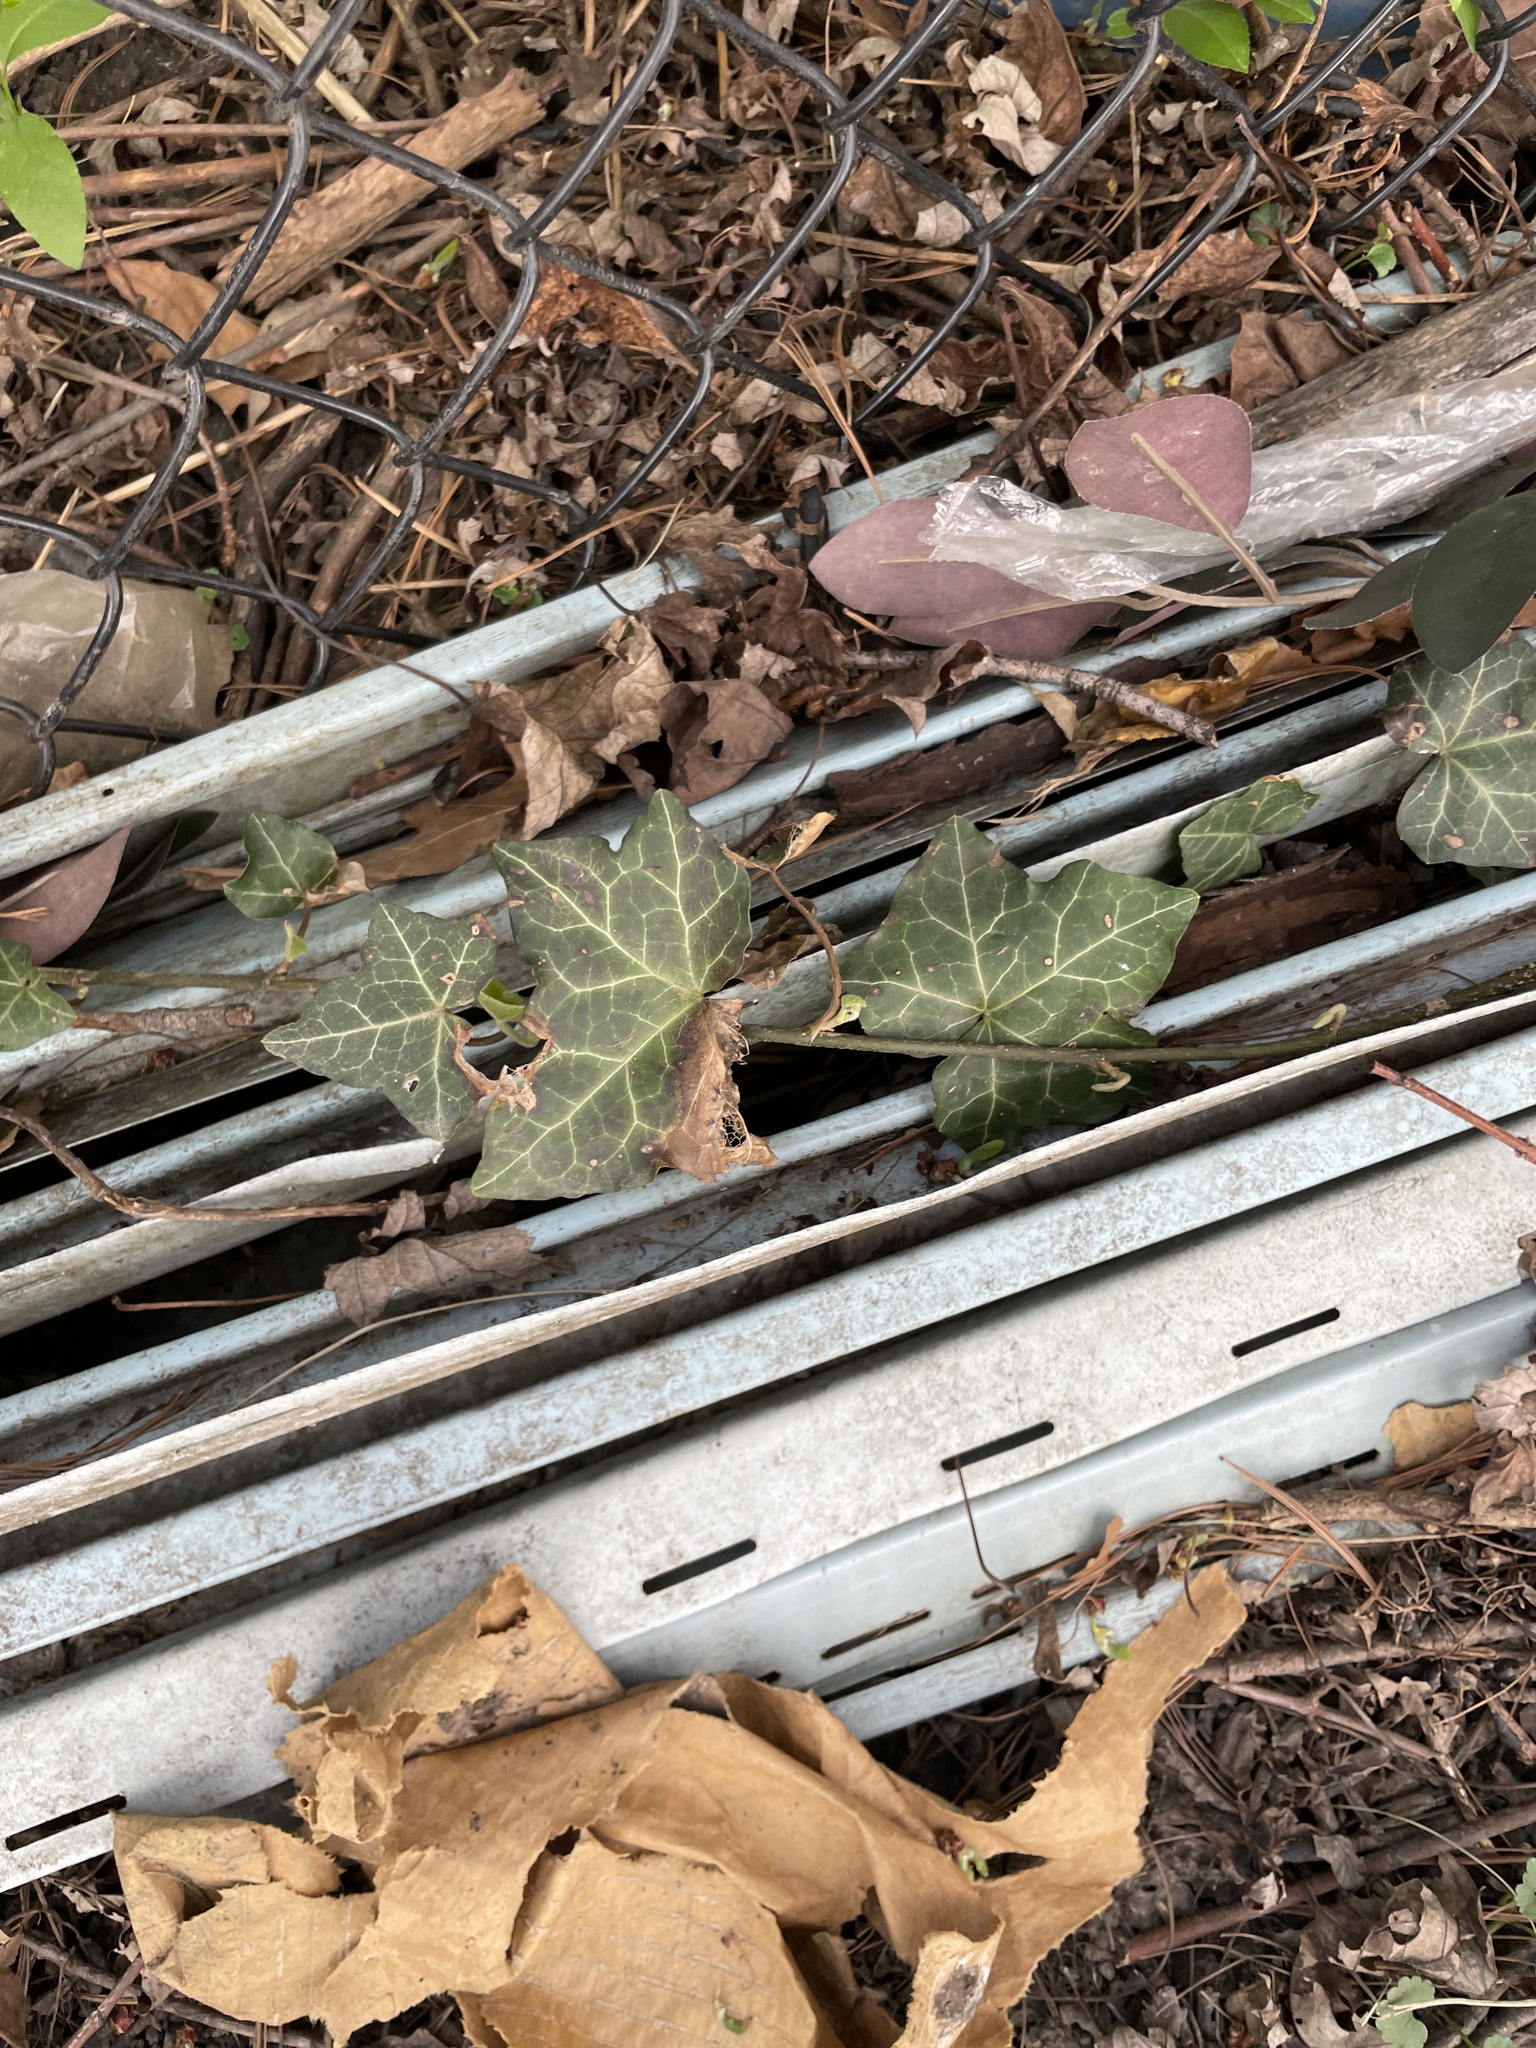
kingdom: Plantae
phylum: Tracheophyta
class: Magnoliopsida
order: Apiales
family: Araliaceae
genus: Hedera
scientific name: Hedera helix
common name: Ivy
